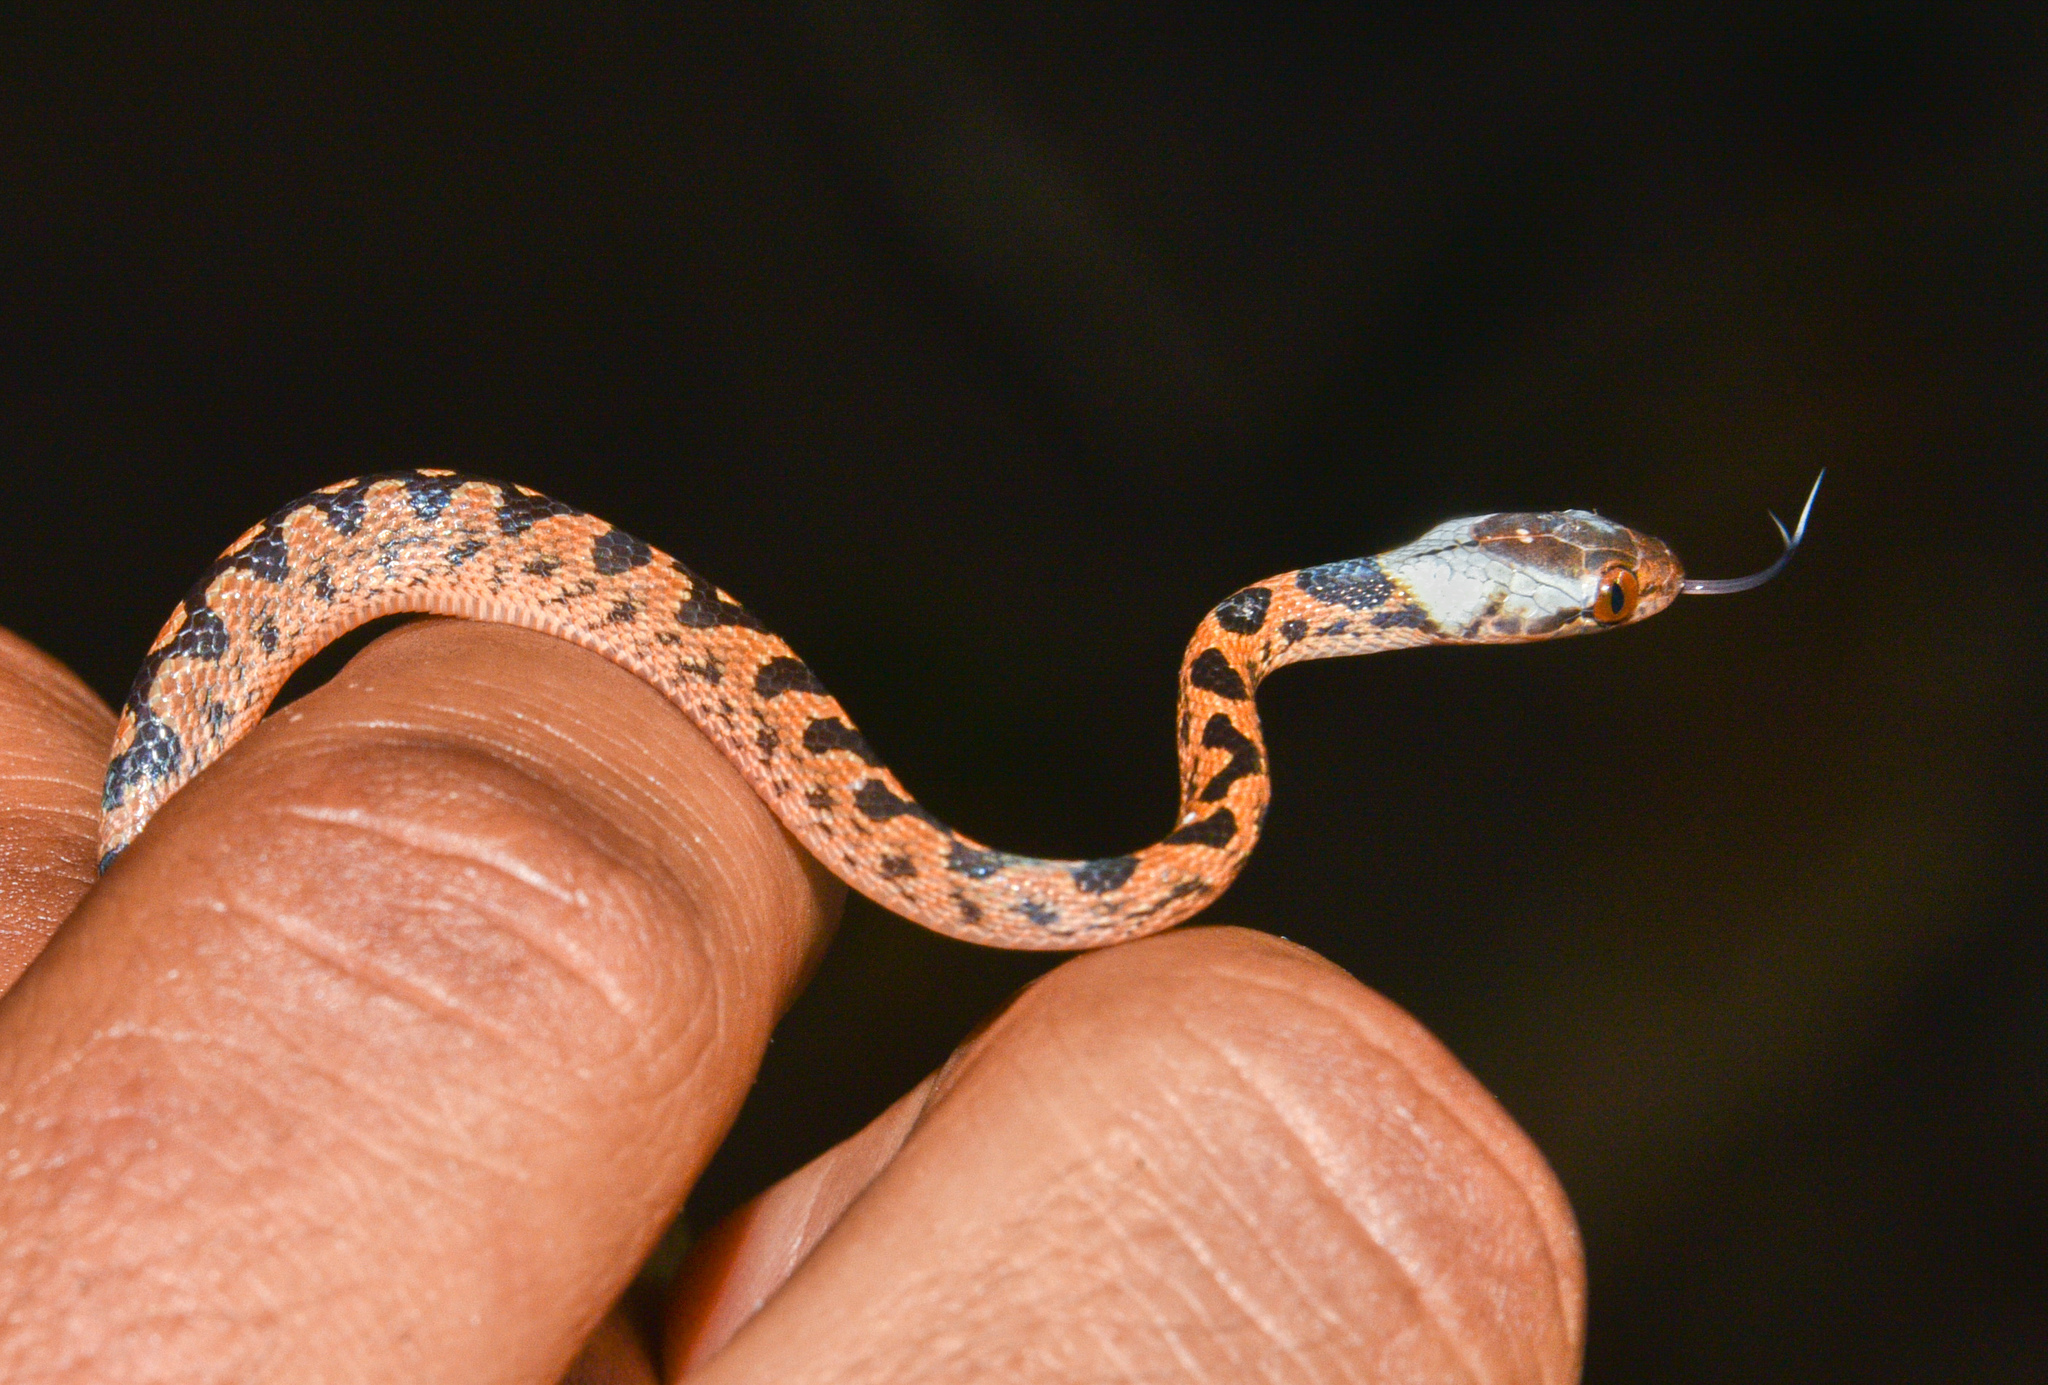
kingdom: Animalia
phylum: Chordata
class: Squamata
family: Colubridae
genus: Leptodeira
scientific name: Leptodeira rhombifera
